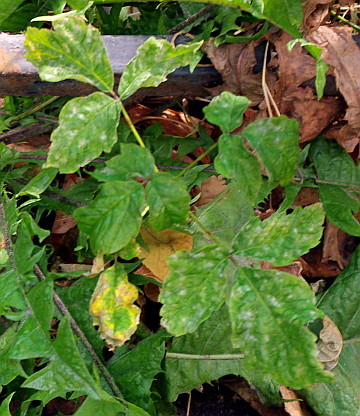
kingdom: Plantae
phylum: Tracheophyta
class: Magnoliopsida
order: Sapindales
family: Sapindaceae
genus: Acer
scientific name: Acer negundo
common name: Ashleaf maple
